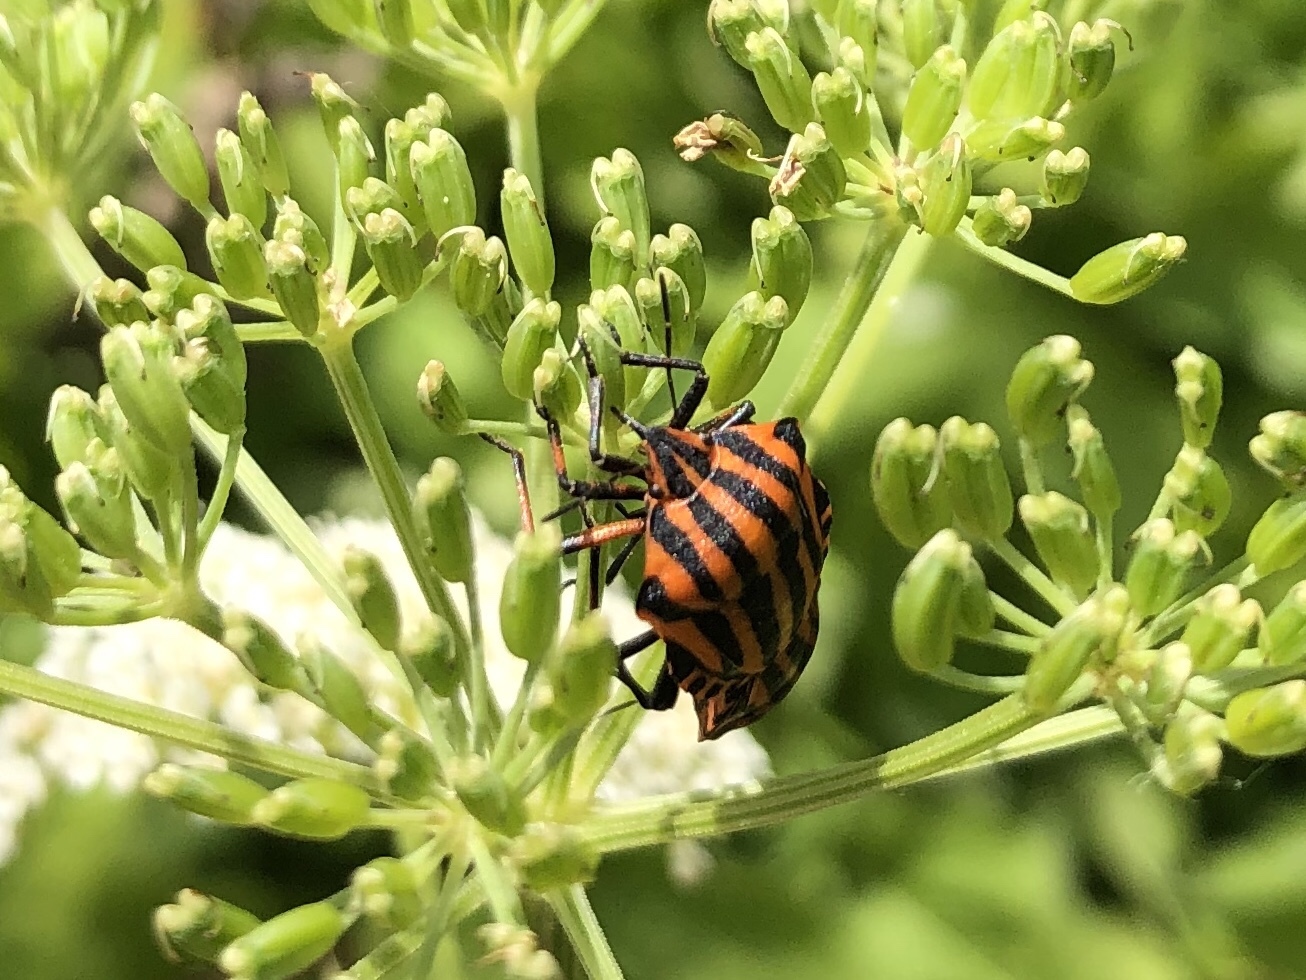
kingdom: Animalia
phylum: Arthropoda
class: Insecta
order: Hemiptera
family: Pentatomidae
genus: Graphosoma
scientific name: Graphosoma italicum
